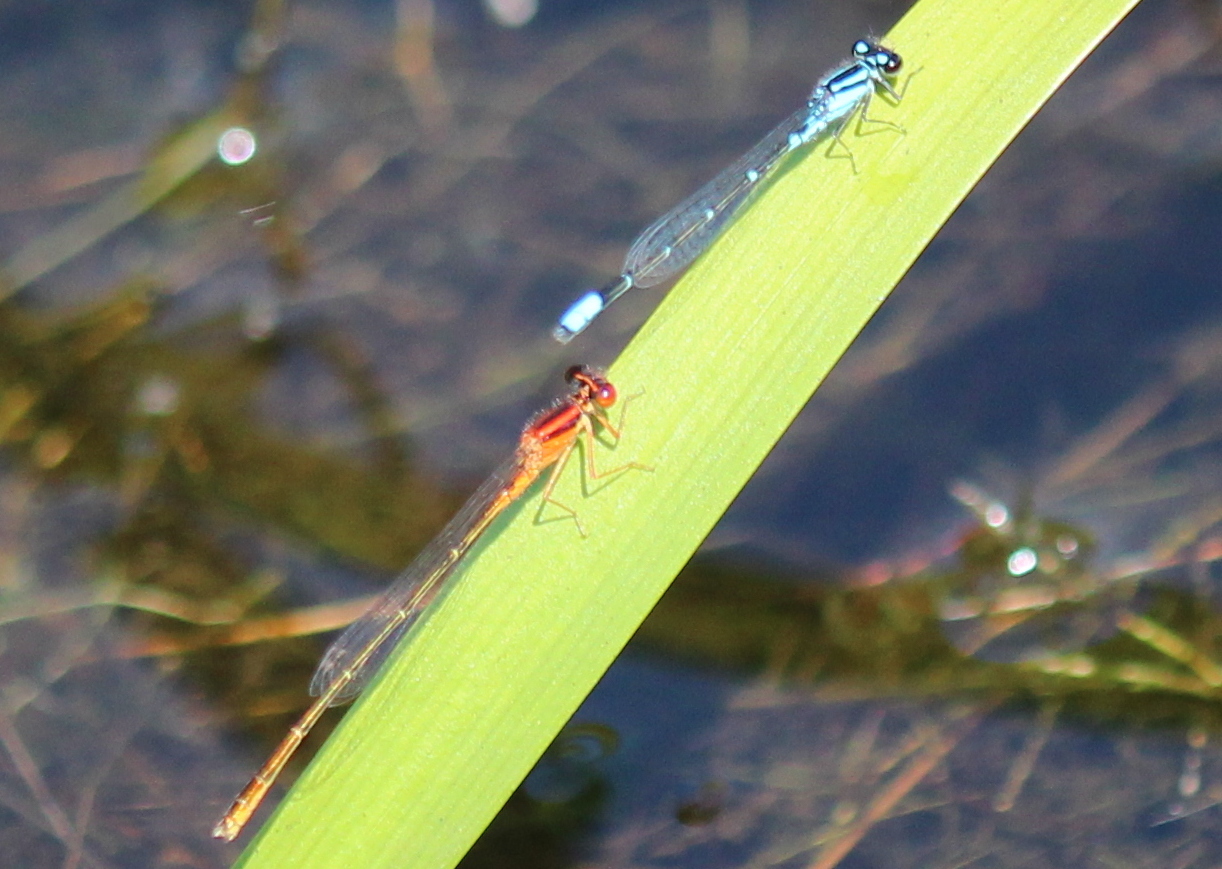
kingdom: Animalia
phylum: Arthropoda
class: Insecta
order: Odonata
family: Coenagrionidae
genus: Enallagma
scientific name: Enallagma pictum
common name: Scarlet bluet
